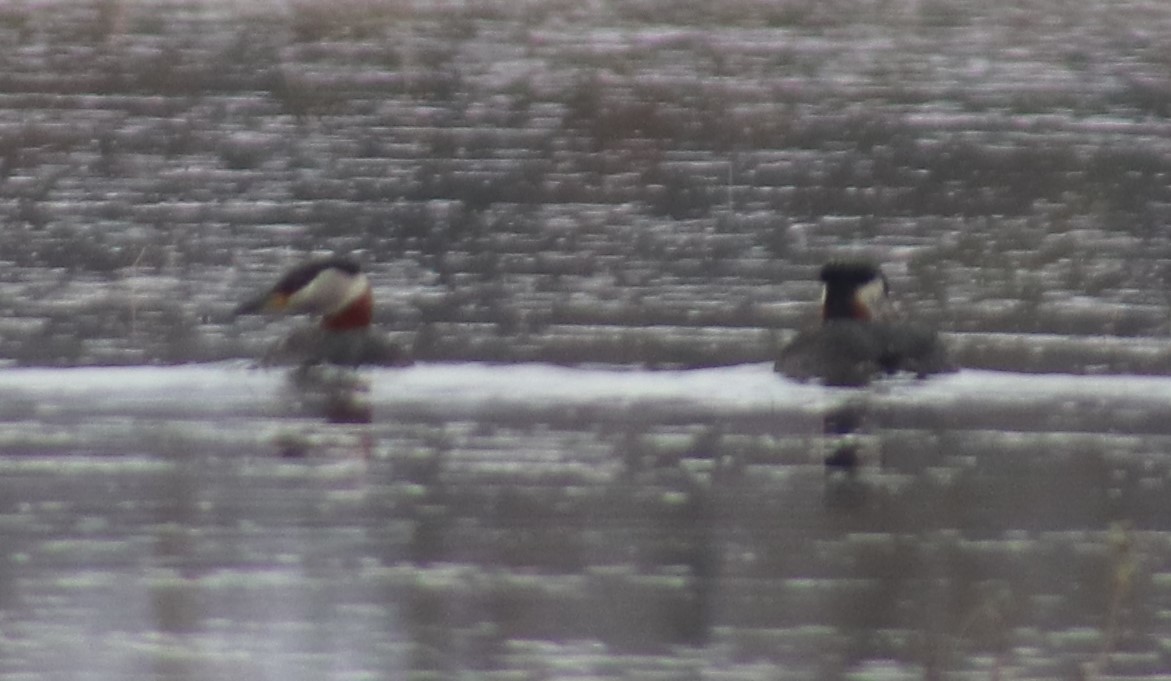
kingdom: Animalia
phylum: Chordata
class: Aves
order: Podicipediformes
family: Podicipedidae
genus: Podiceps
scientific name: Podiceps grisegena
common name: Red-necked grebe
